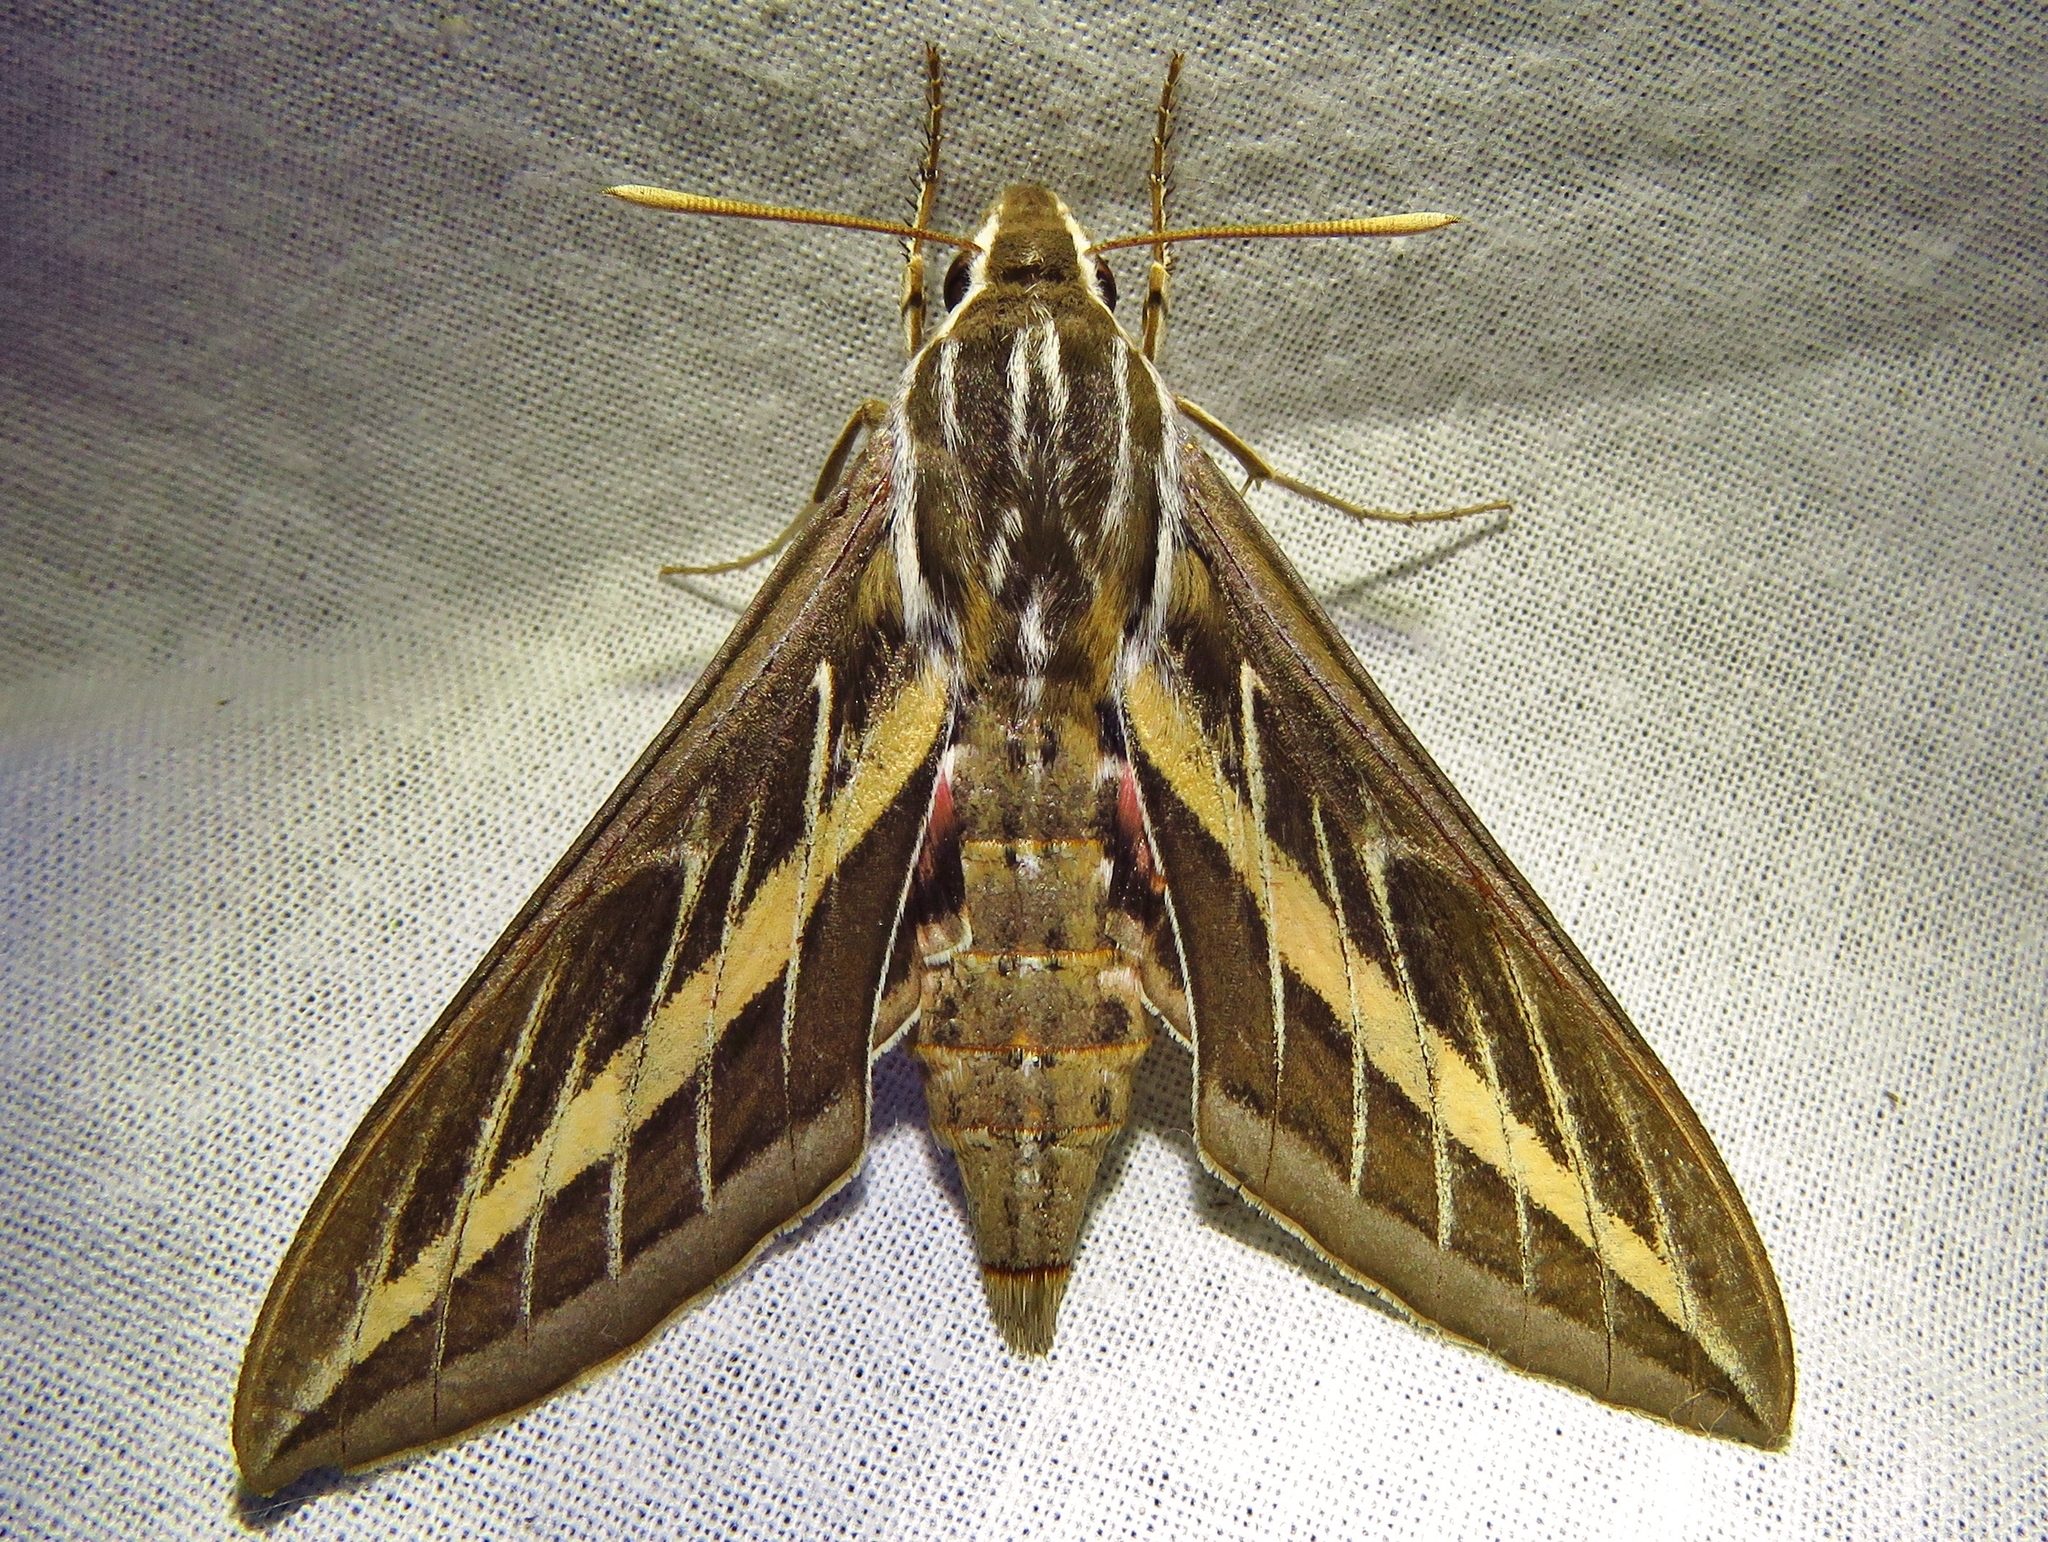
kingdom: Animalia
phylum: Arthropoda
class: Insecta
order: Lepidoptera
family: Sphingidae
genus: Hyles
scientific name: Hyles lineata
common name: White-lined sphinx
